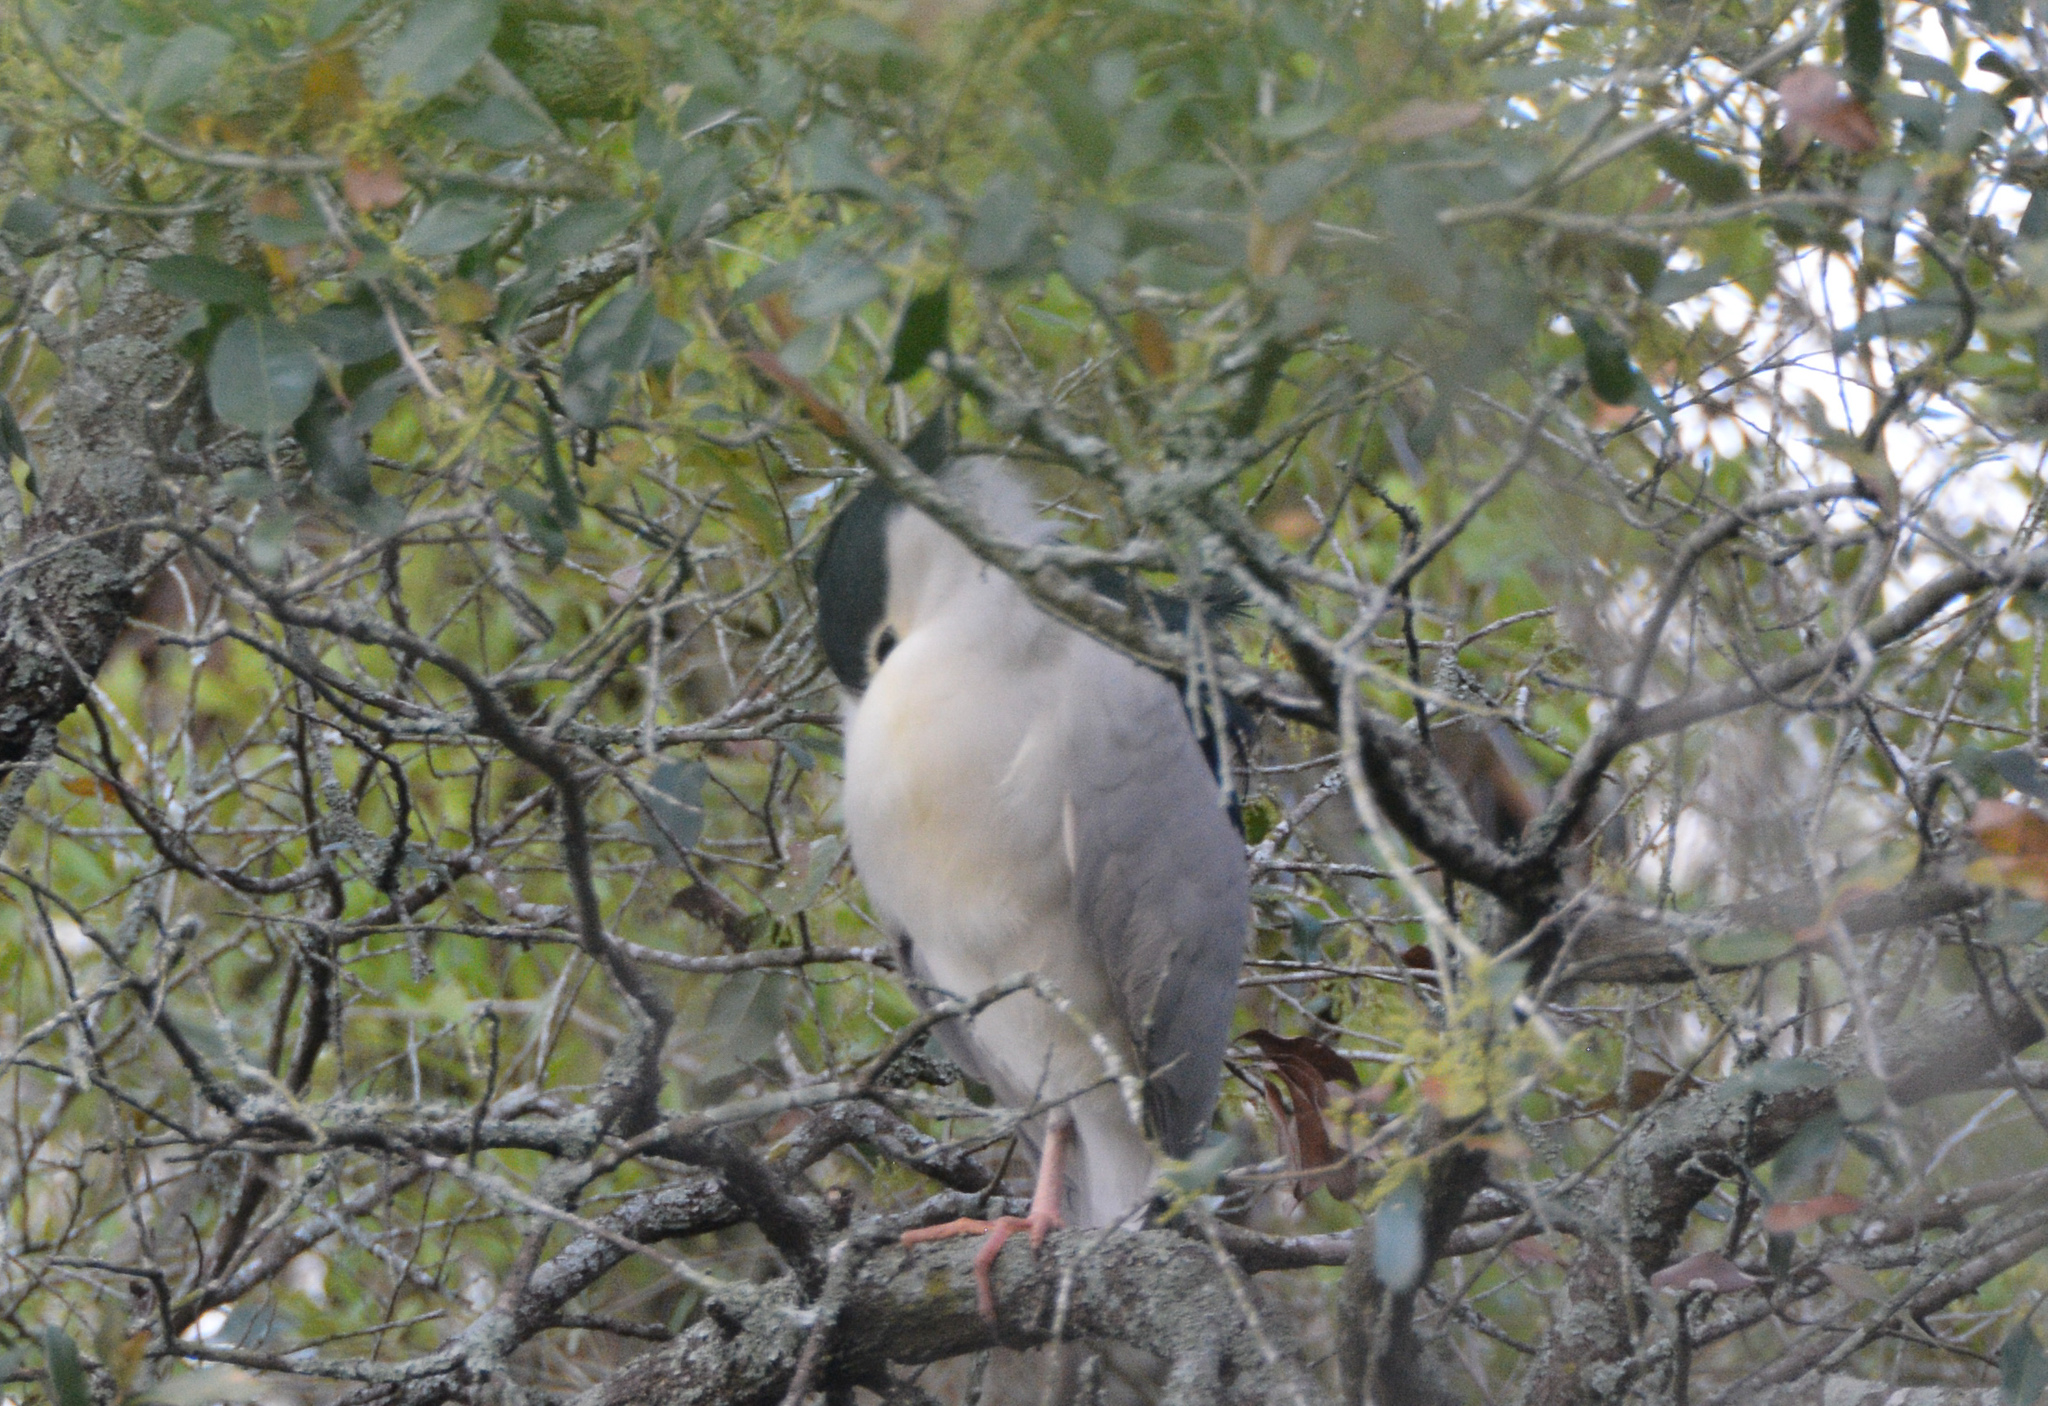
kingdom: Animalia
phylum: Chordata
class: Aves
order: Pelecaniformes
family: Ardeidae
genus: Nycticorax
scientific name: Nycticorax nycticorax
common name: Black-crowned night heron
